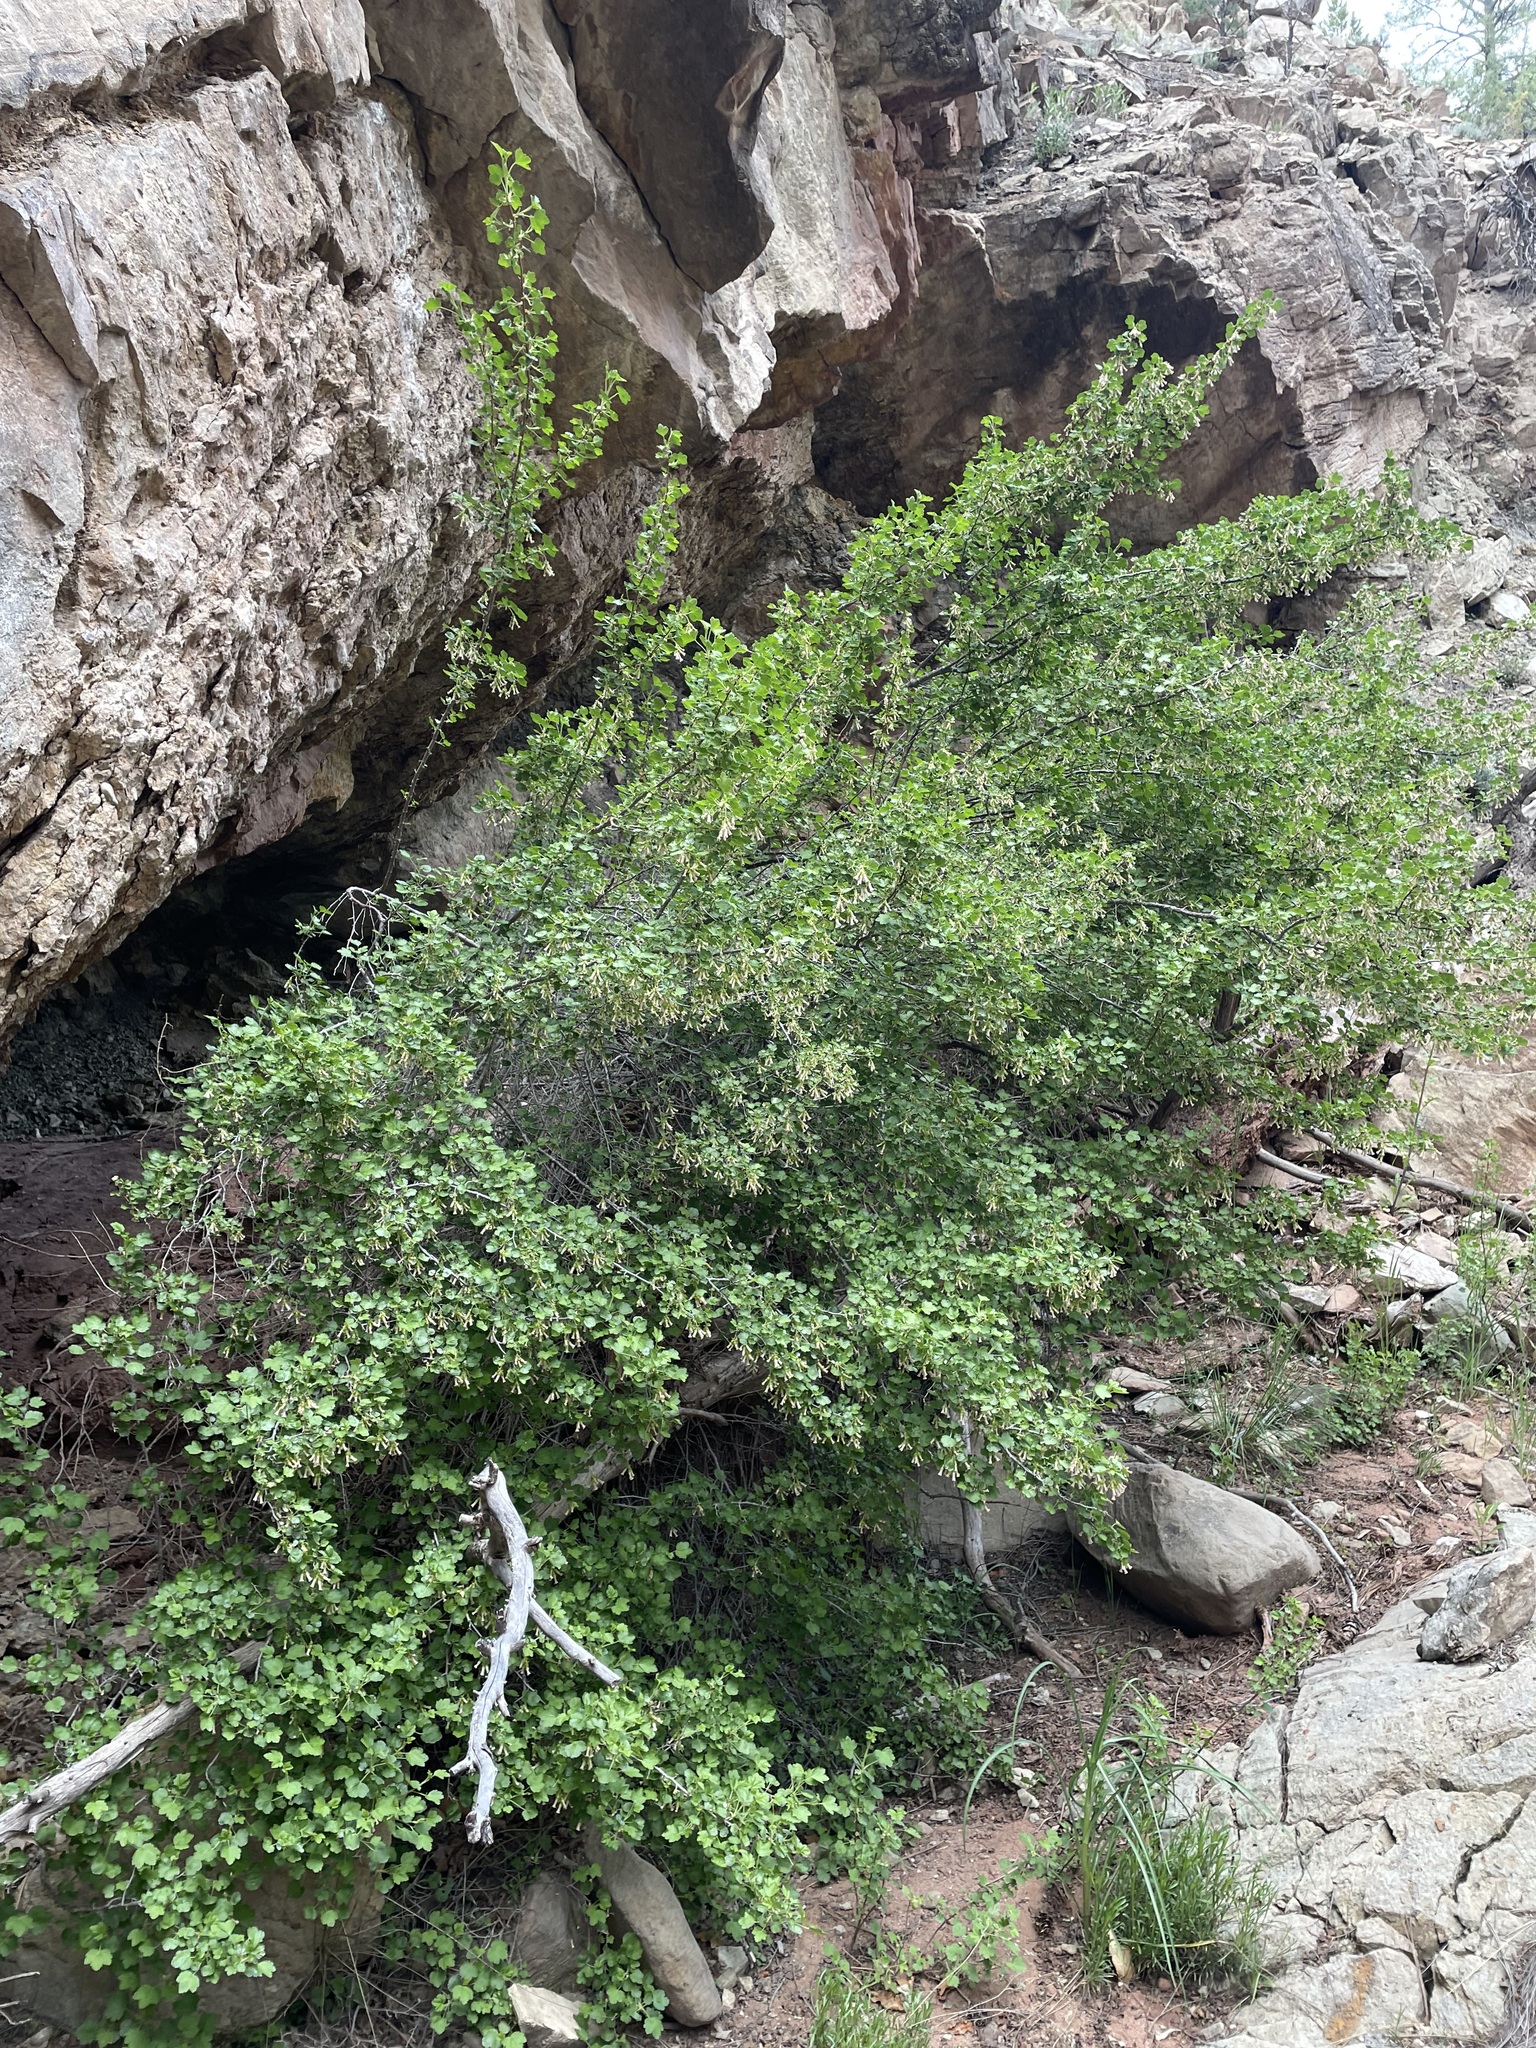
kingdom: Plantae
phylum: Tracheophyta
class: Magnoliopsida
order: Saxifragales
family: Grossulariaceae
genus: Ribes
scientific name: Ribes cereum
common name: Wax currant
